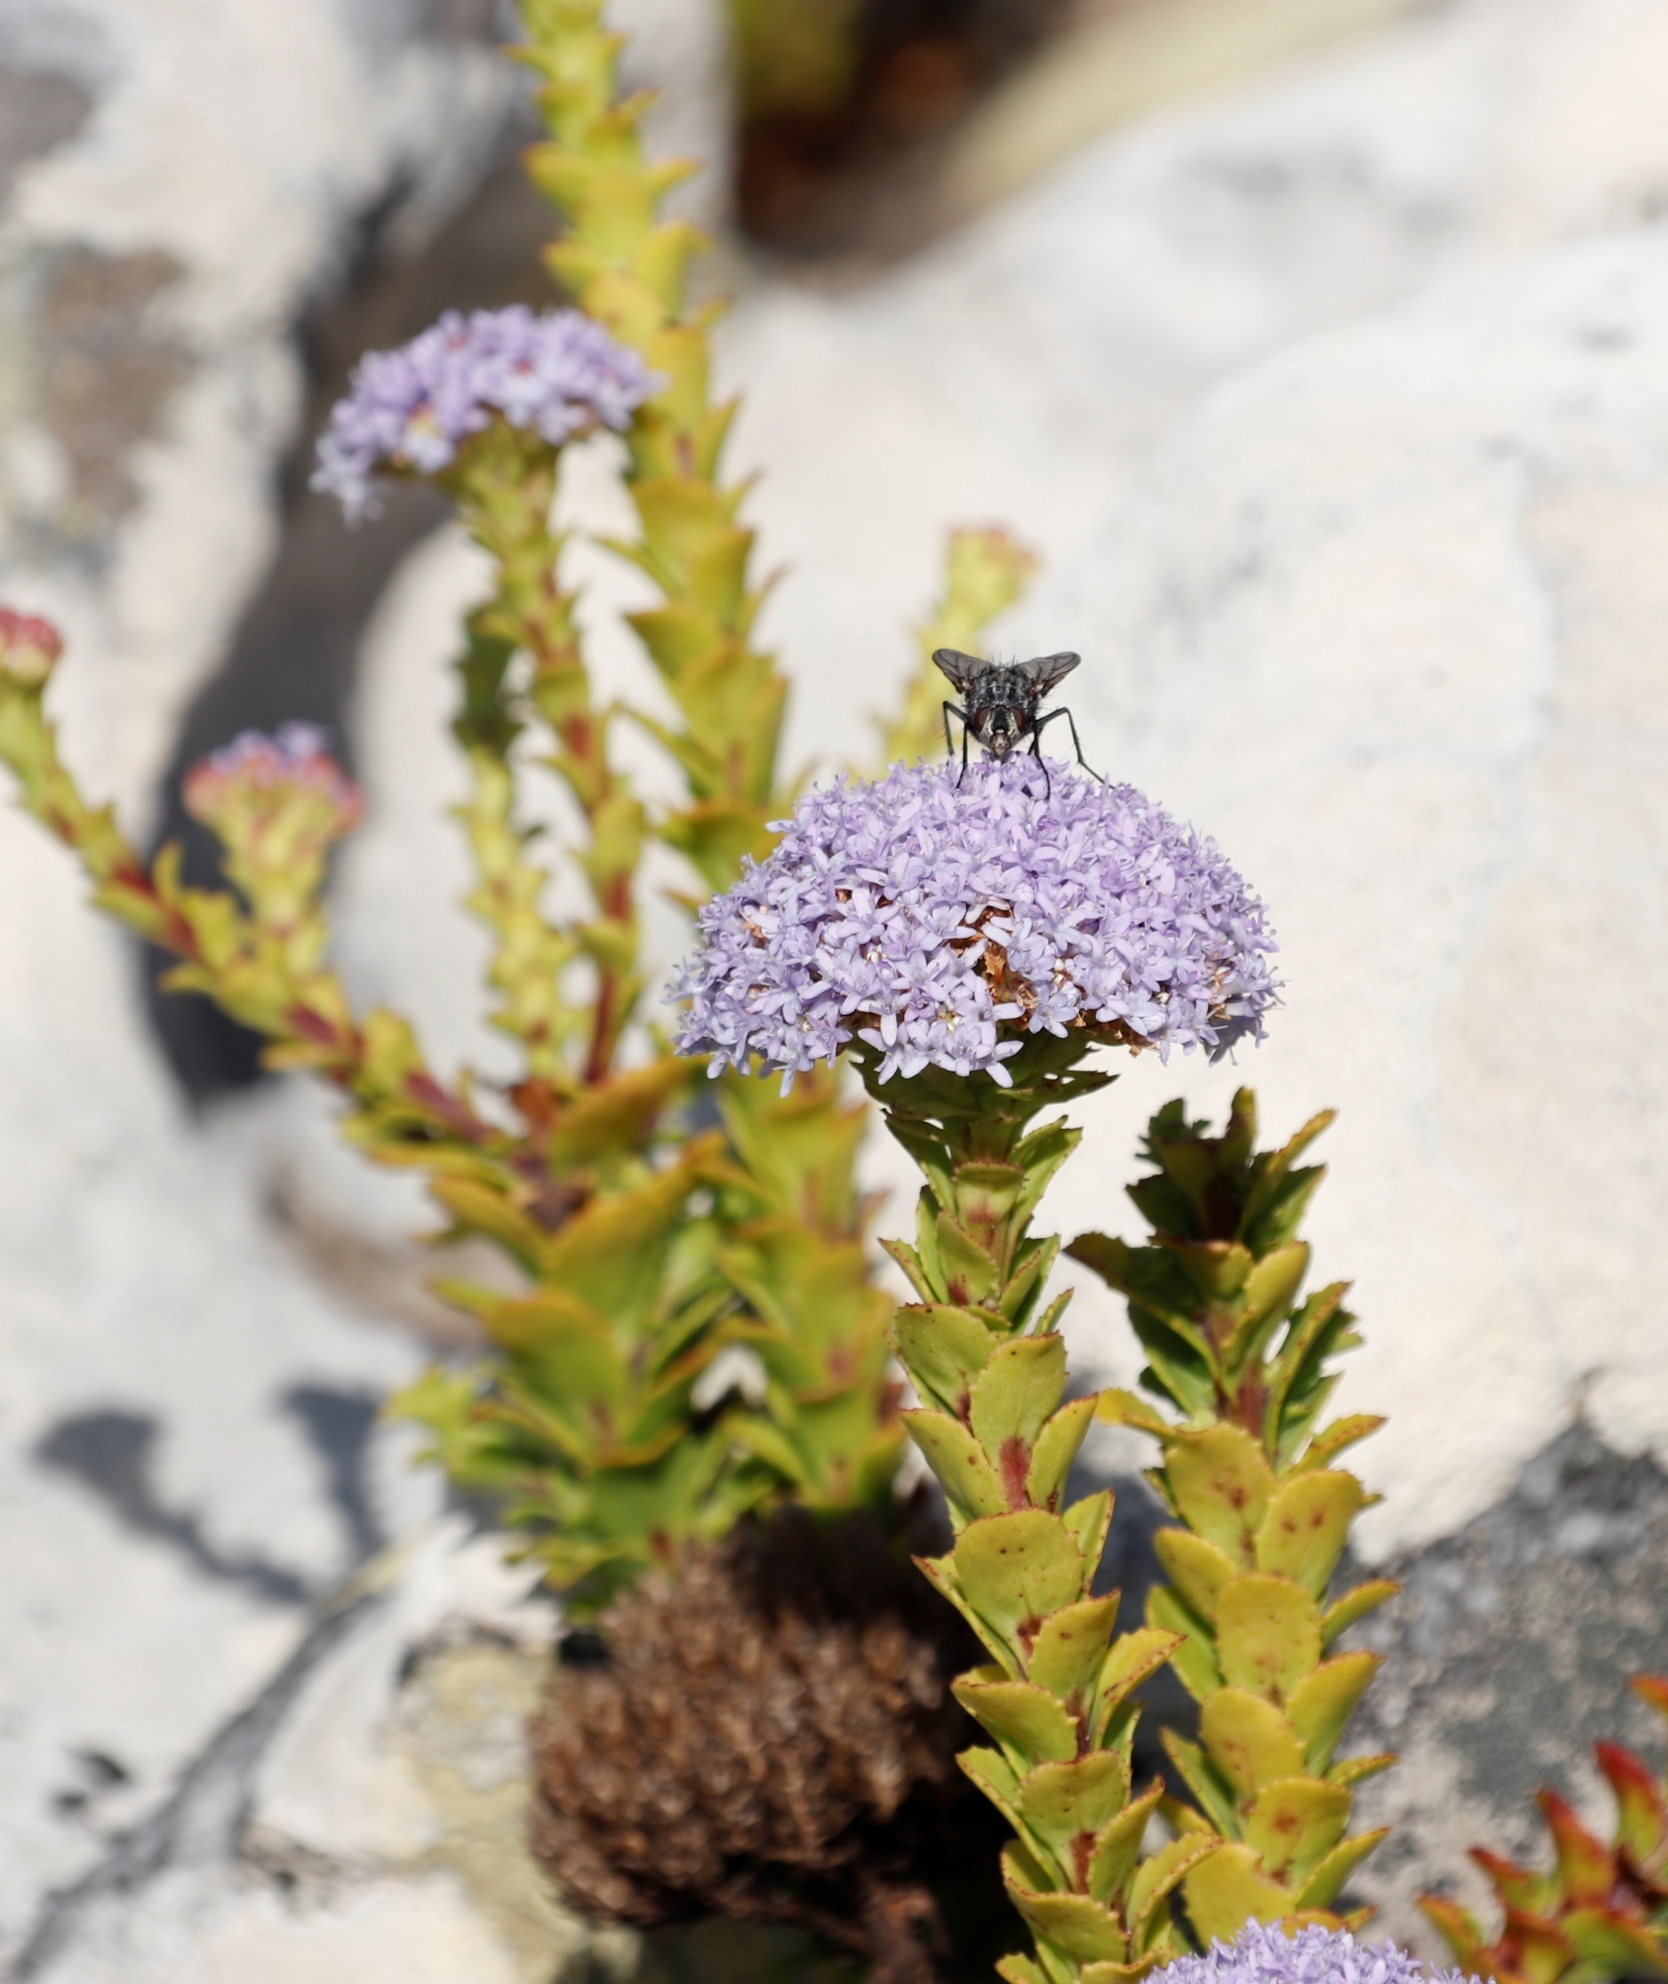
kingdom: Plantae
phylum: Tracheophyta
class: Magnoliopsida
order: Lamiales
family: Scrophulariaceae
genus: Pseudoselago
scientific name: Pseudoselago serrata
